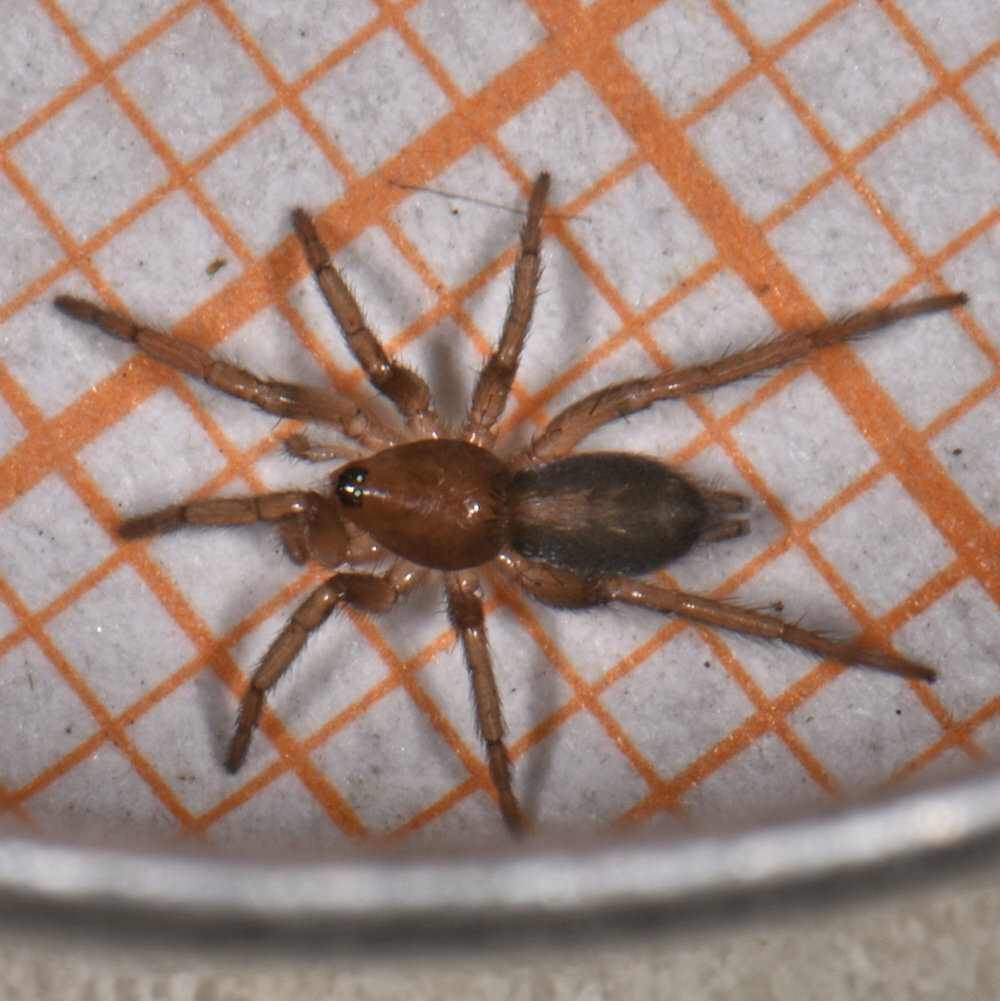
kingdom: Animalia
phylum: Arthropoda
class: Arachnida
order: Araneae
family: Gnaphosidae
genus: Herpyllus
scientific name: Herpyllus ecclesiasticus
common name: Eastern parson spider
